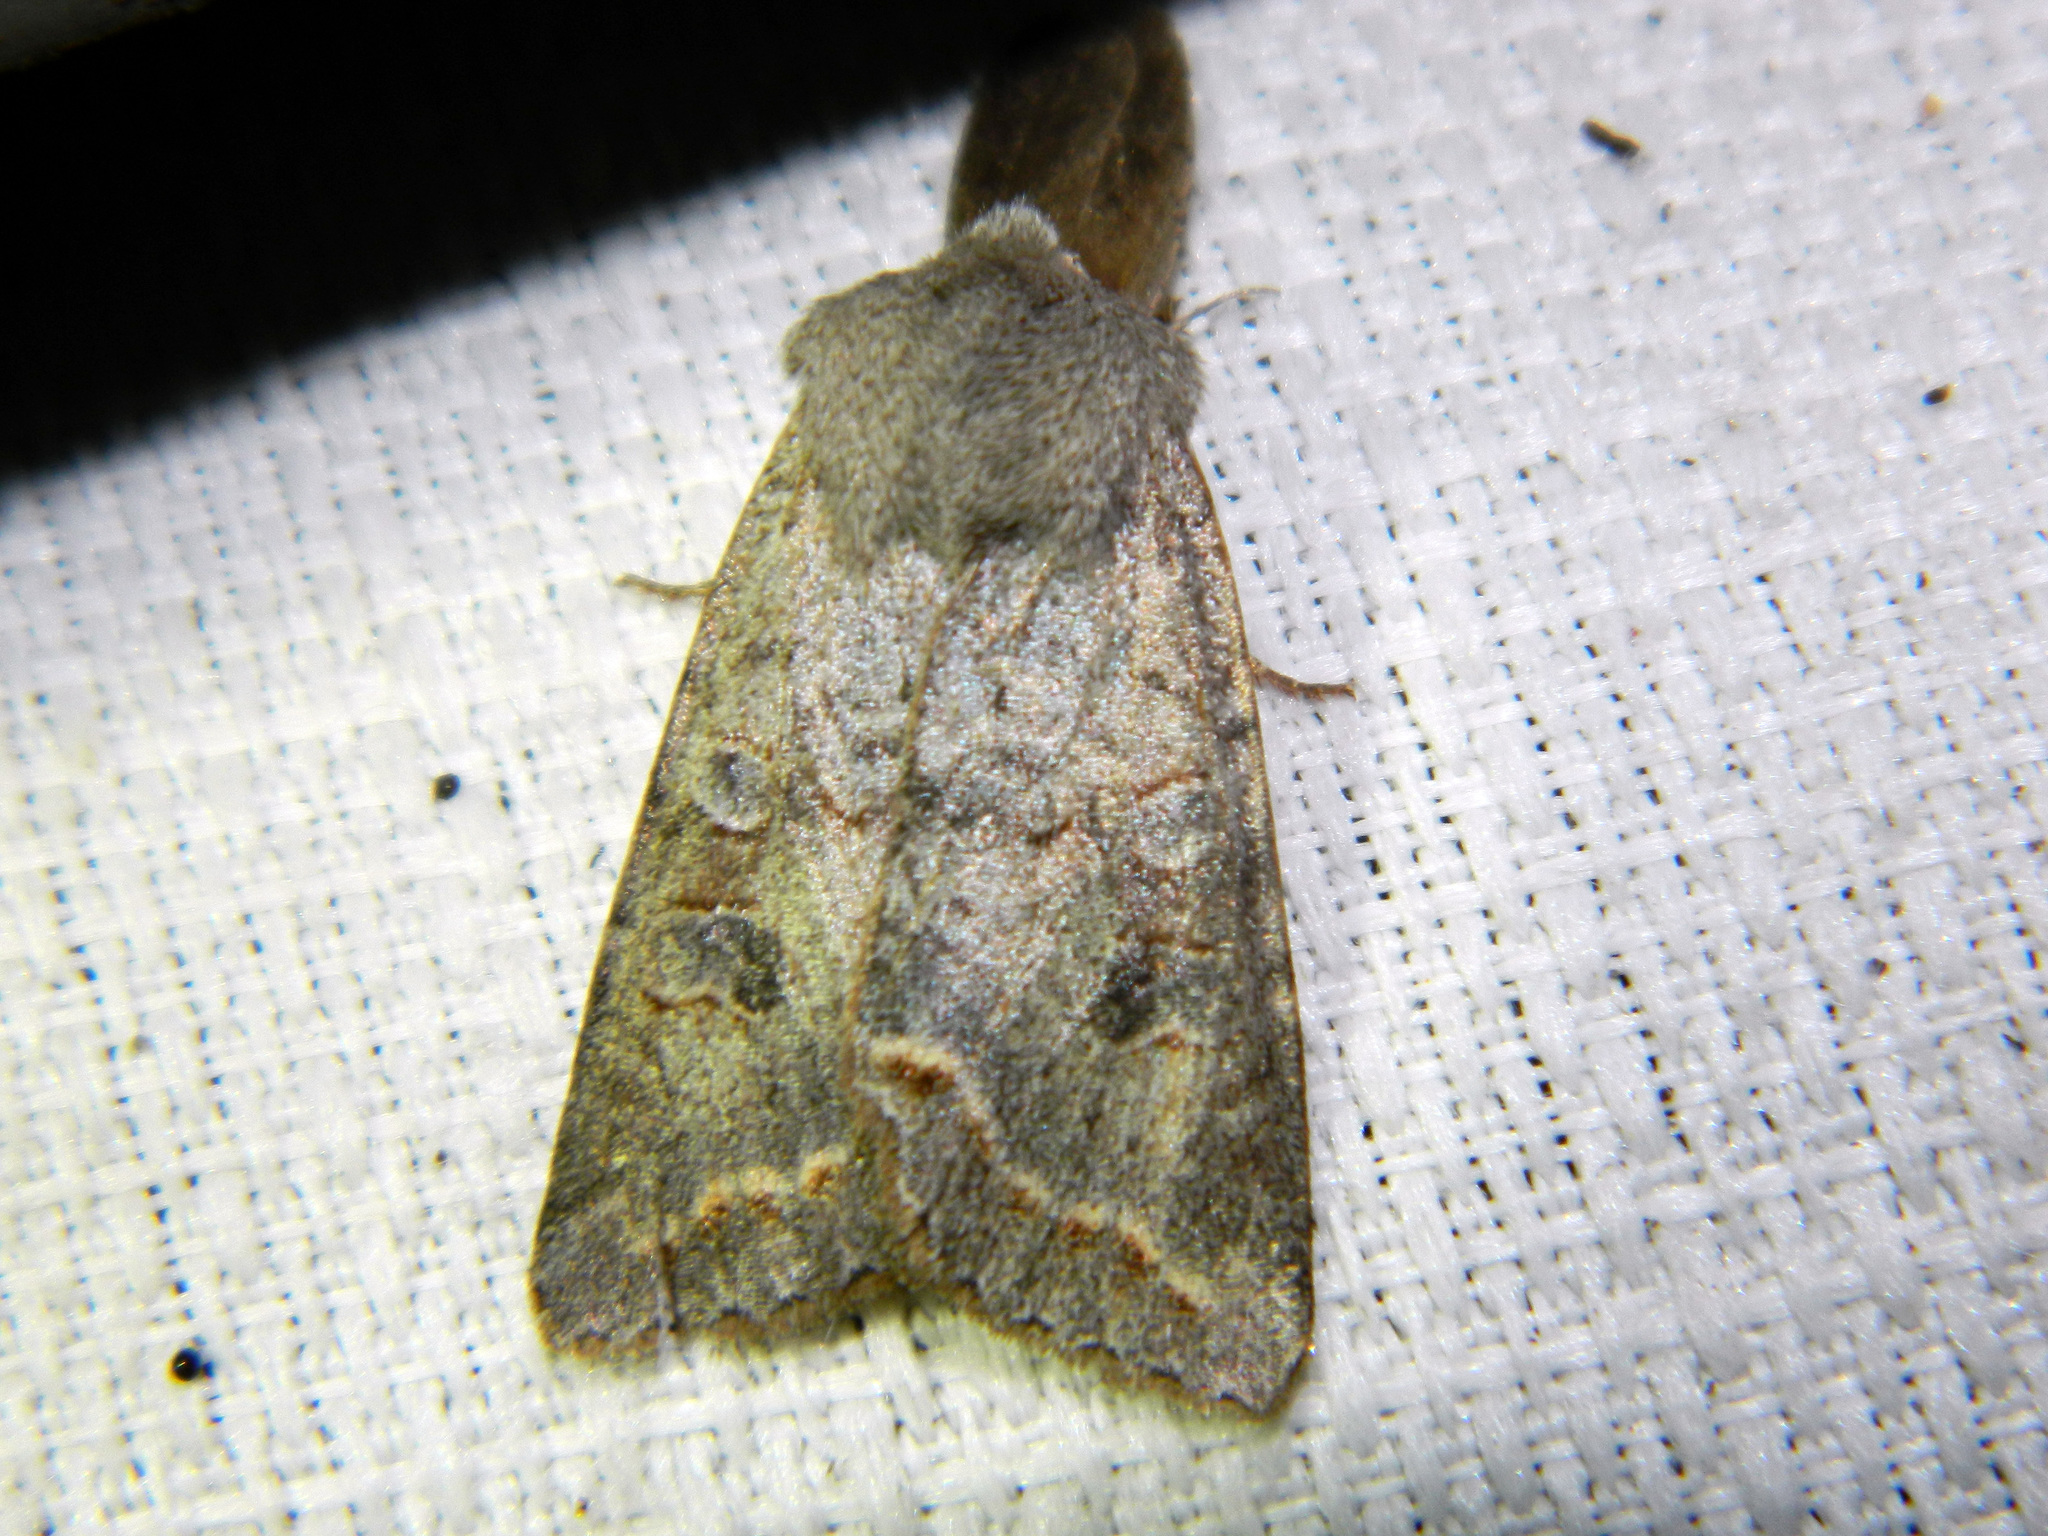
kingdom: Animalia
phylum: Arthropoda
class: Insecta
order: Lepidoptera
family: Noctuidae
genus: Orthosia
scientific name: Orthosia revicta
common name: Rusty whitesided caterpillar
